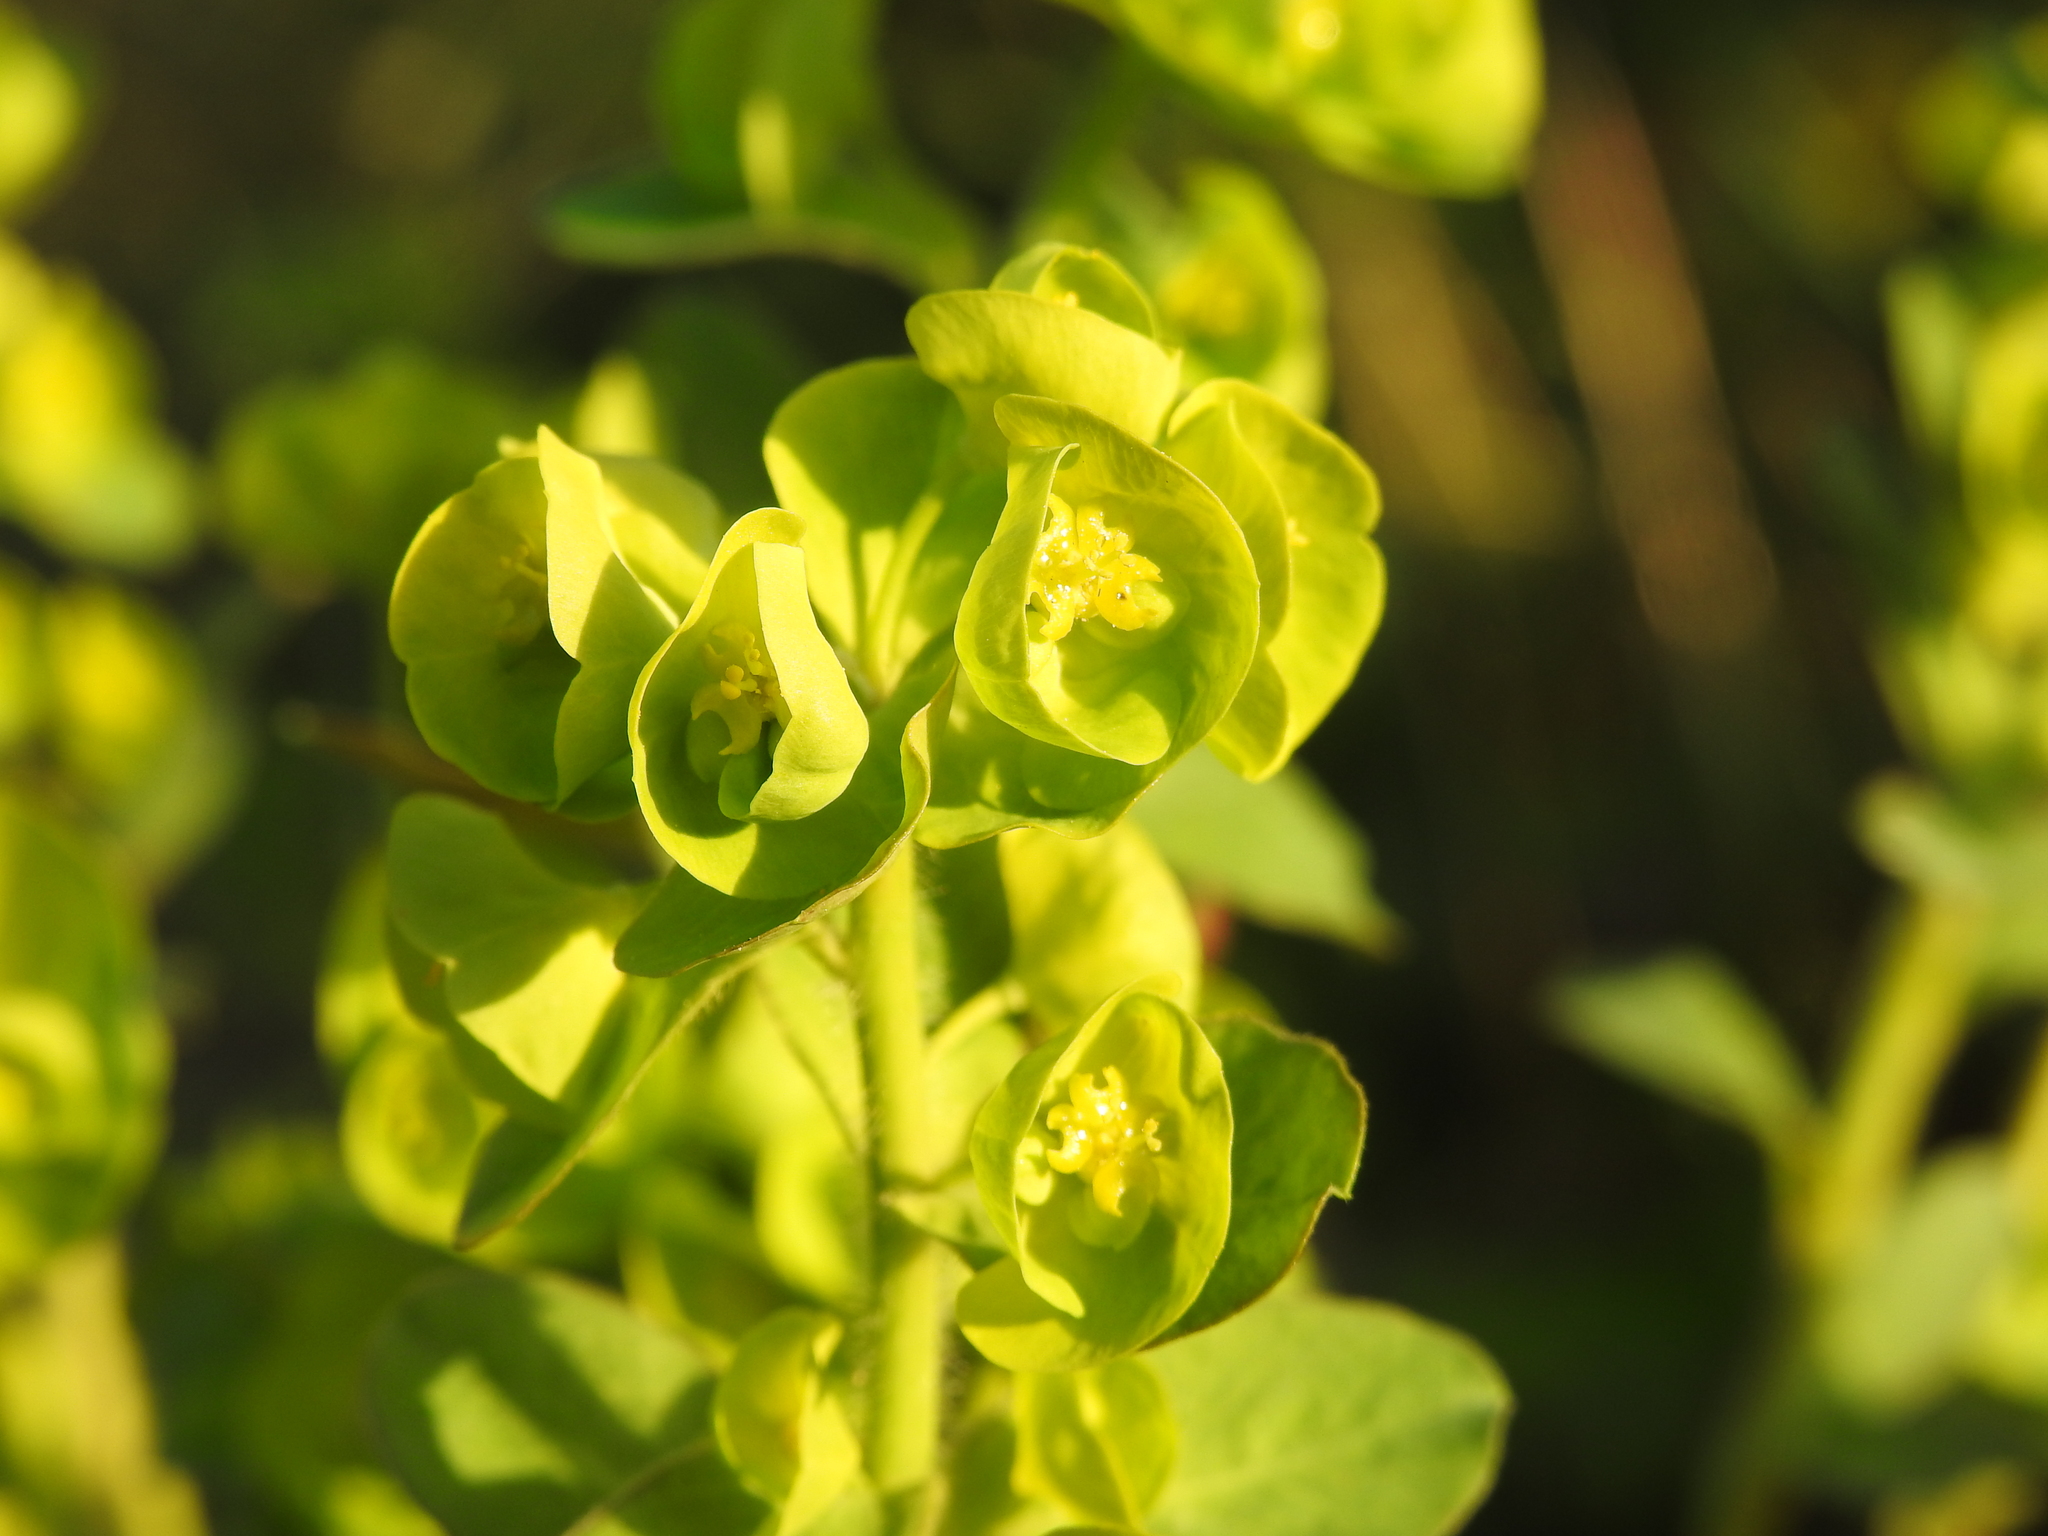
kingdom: Plantae
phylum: Tracheophyta
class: Magnoliopsida
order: Malpighiales
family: Euphorbiaceae
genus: Euphorbia
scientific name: Euphorbia amygdaloides
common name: Wood spurge
